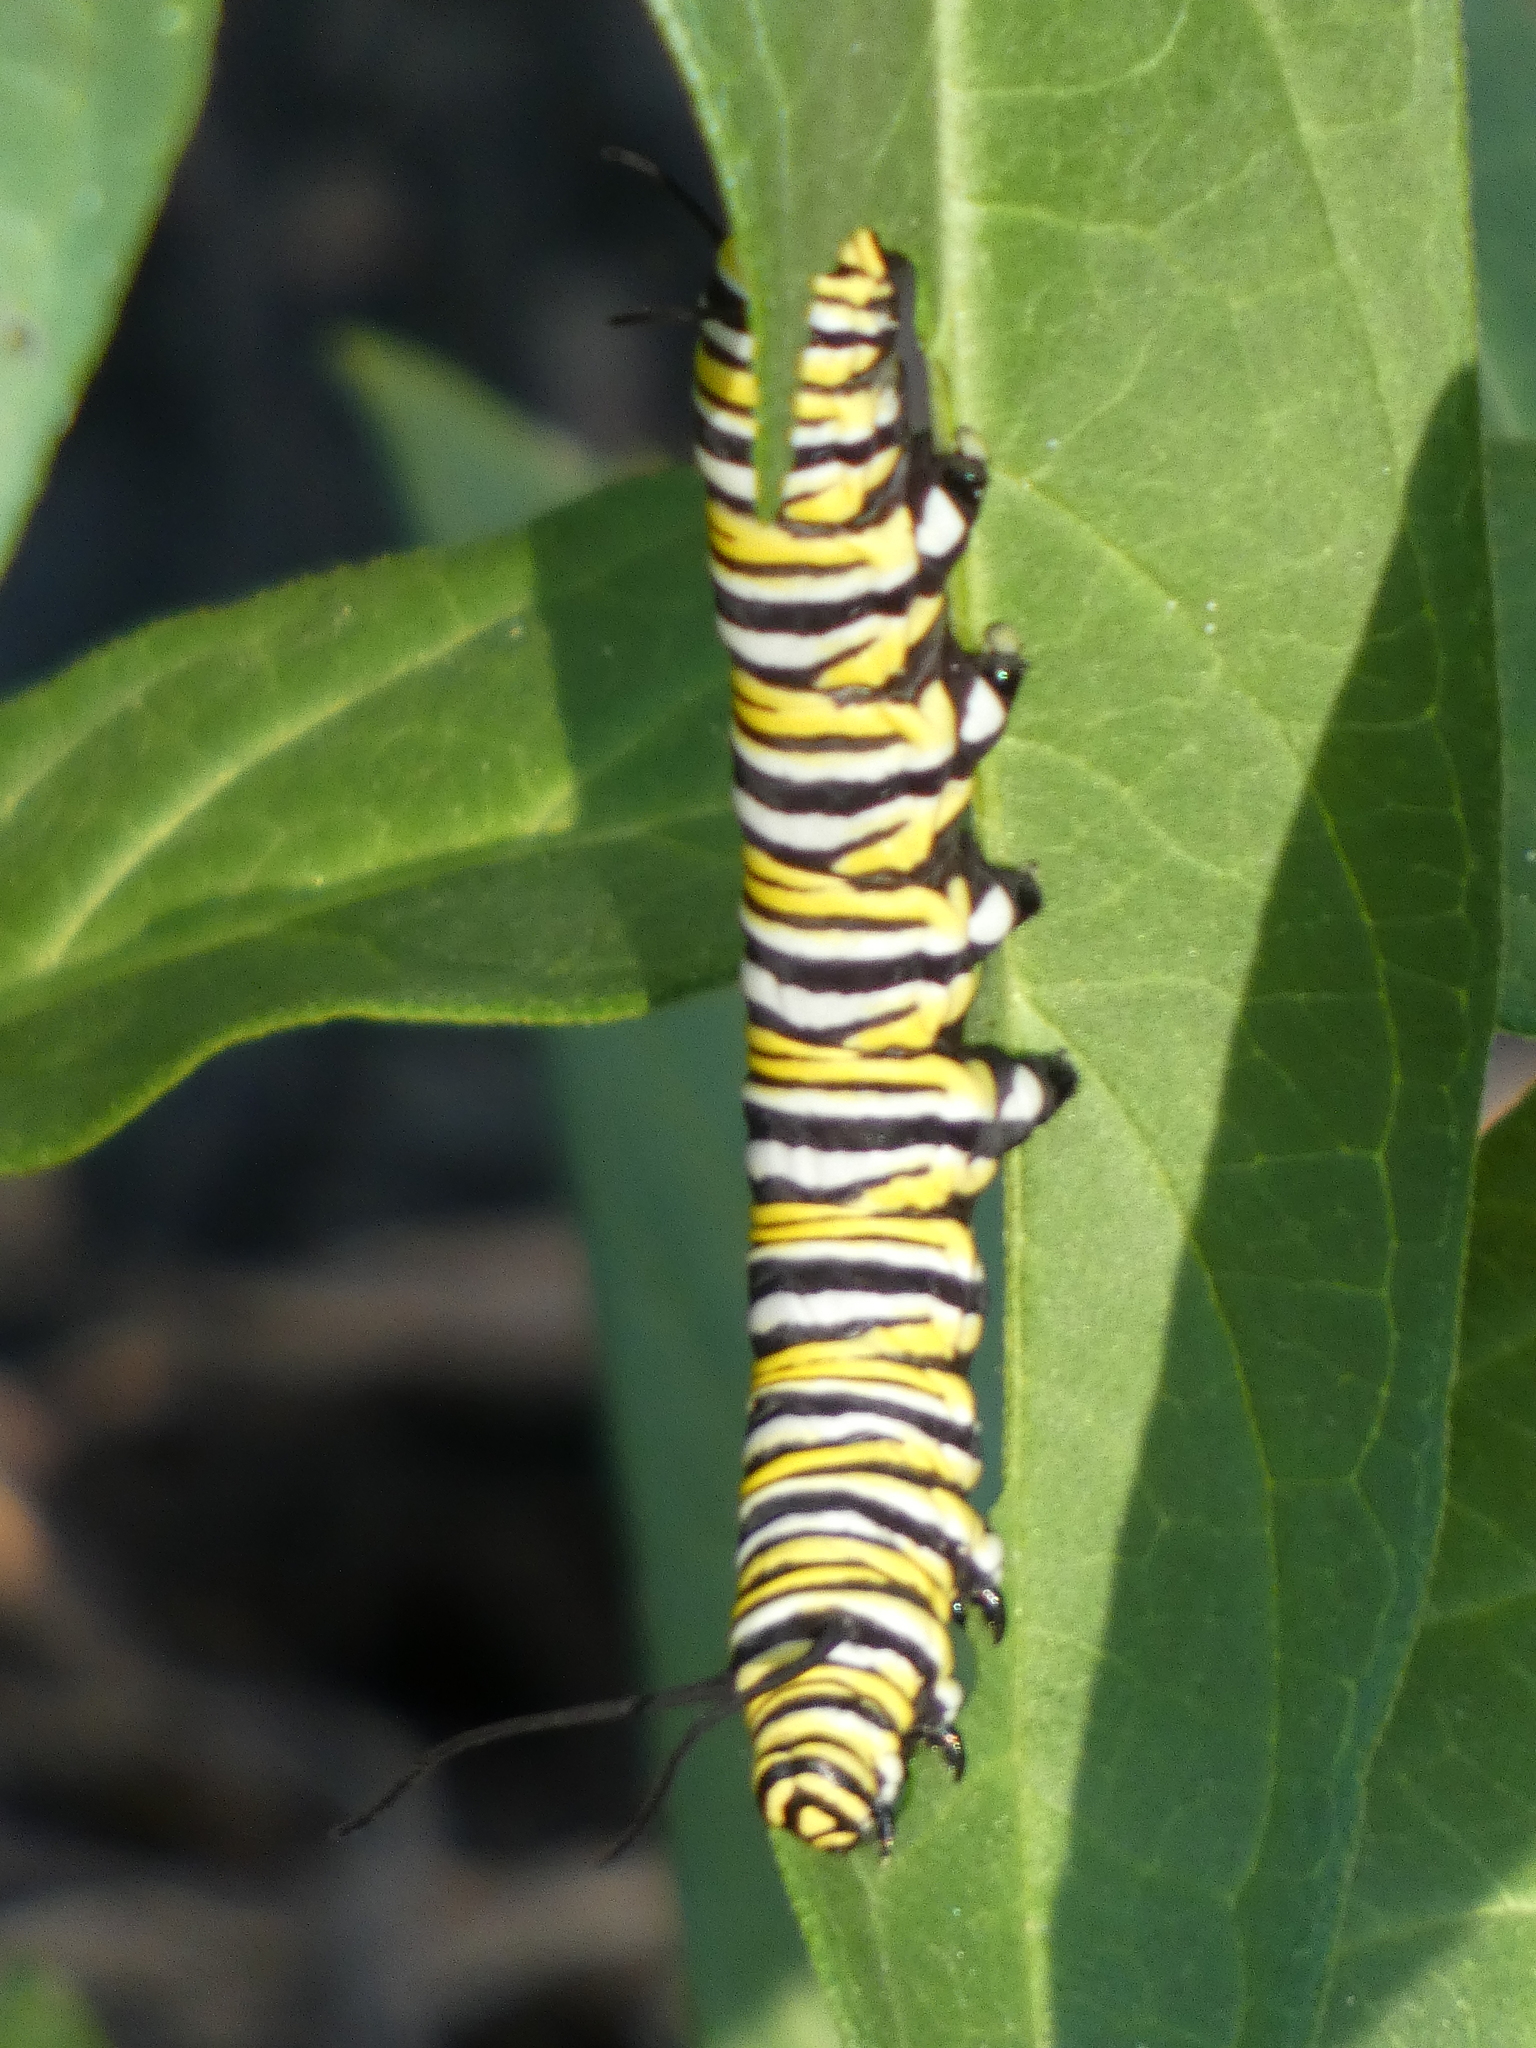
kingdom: Animalia
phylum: Arthropoda
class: Insecta
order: Lepidoptera
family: Nymphalidae
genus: Danaus
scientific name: Danaus plexippus
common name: Monarch
